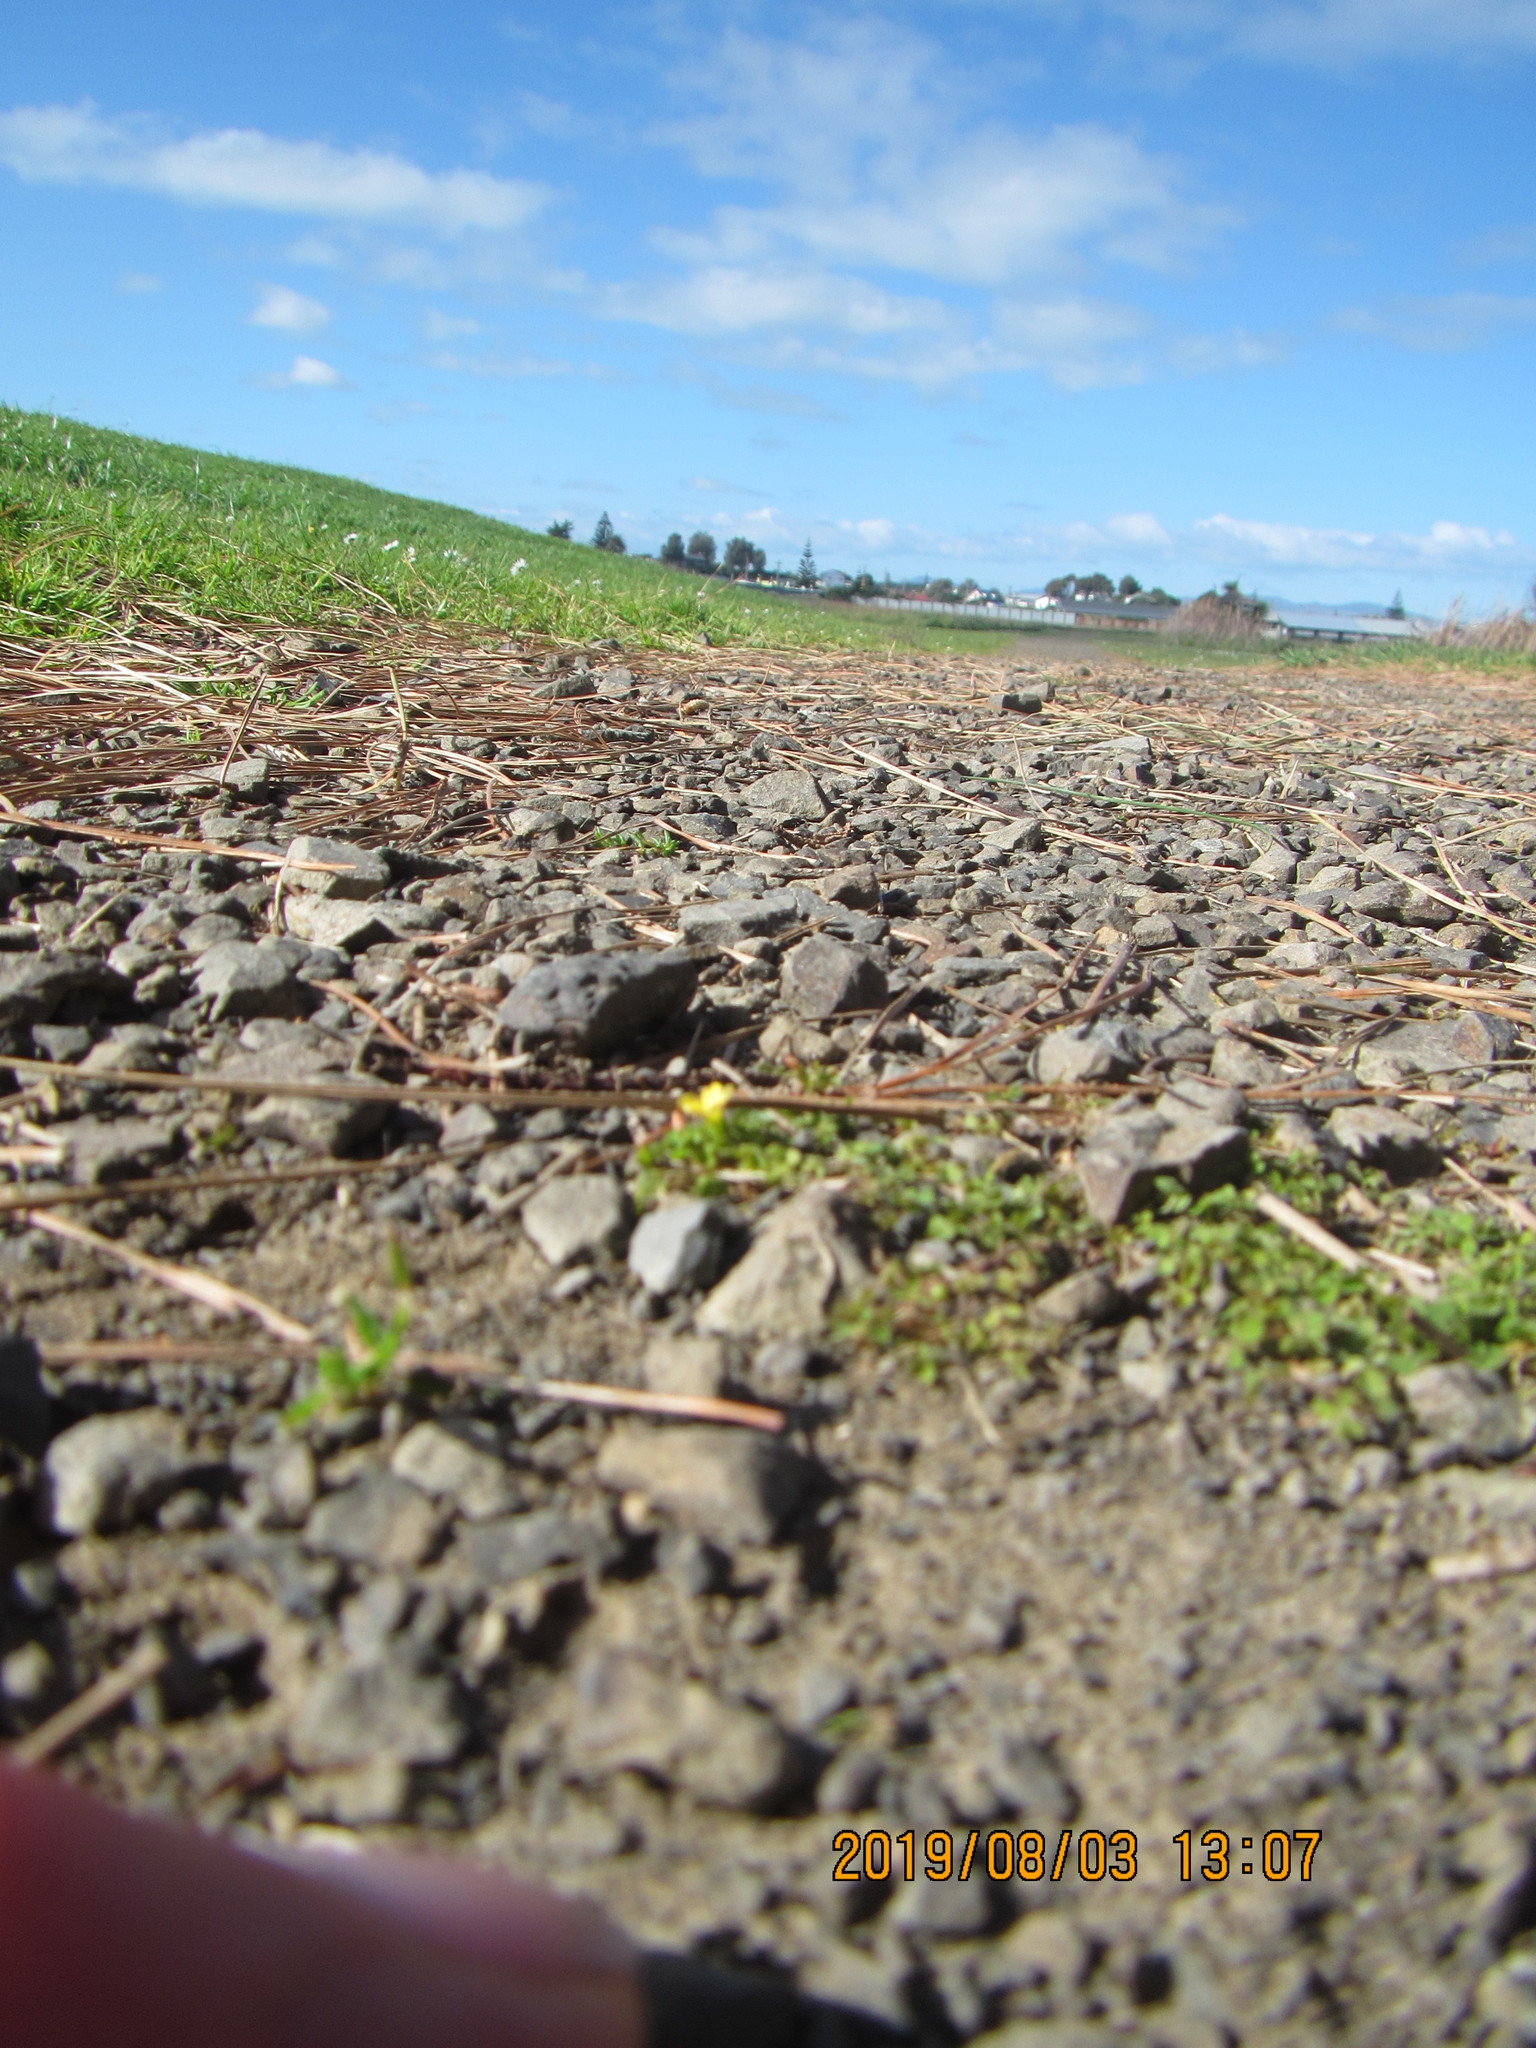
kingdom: Plantae
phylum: Tracheophyta
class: Magnoliopsida
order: Oxalidales
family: Oxalidaceae
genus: Oxalis
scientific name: Oxalis exilis
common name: Least yellow-sorrel
